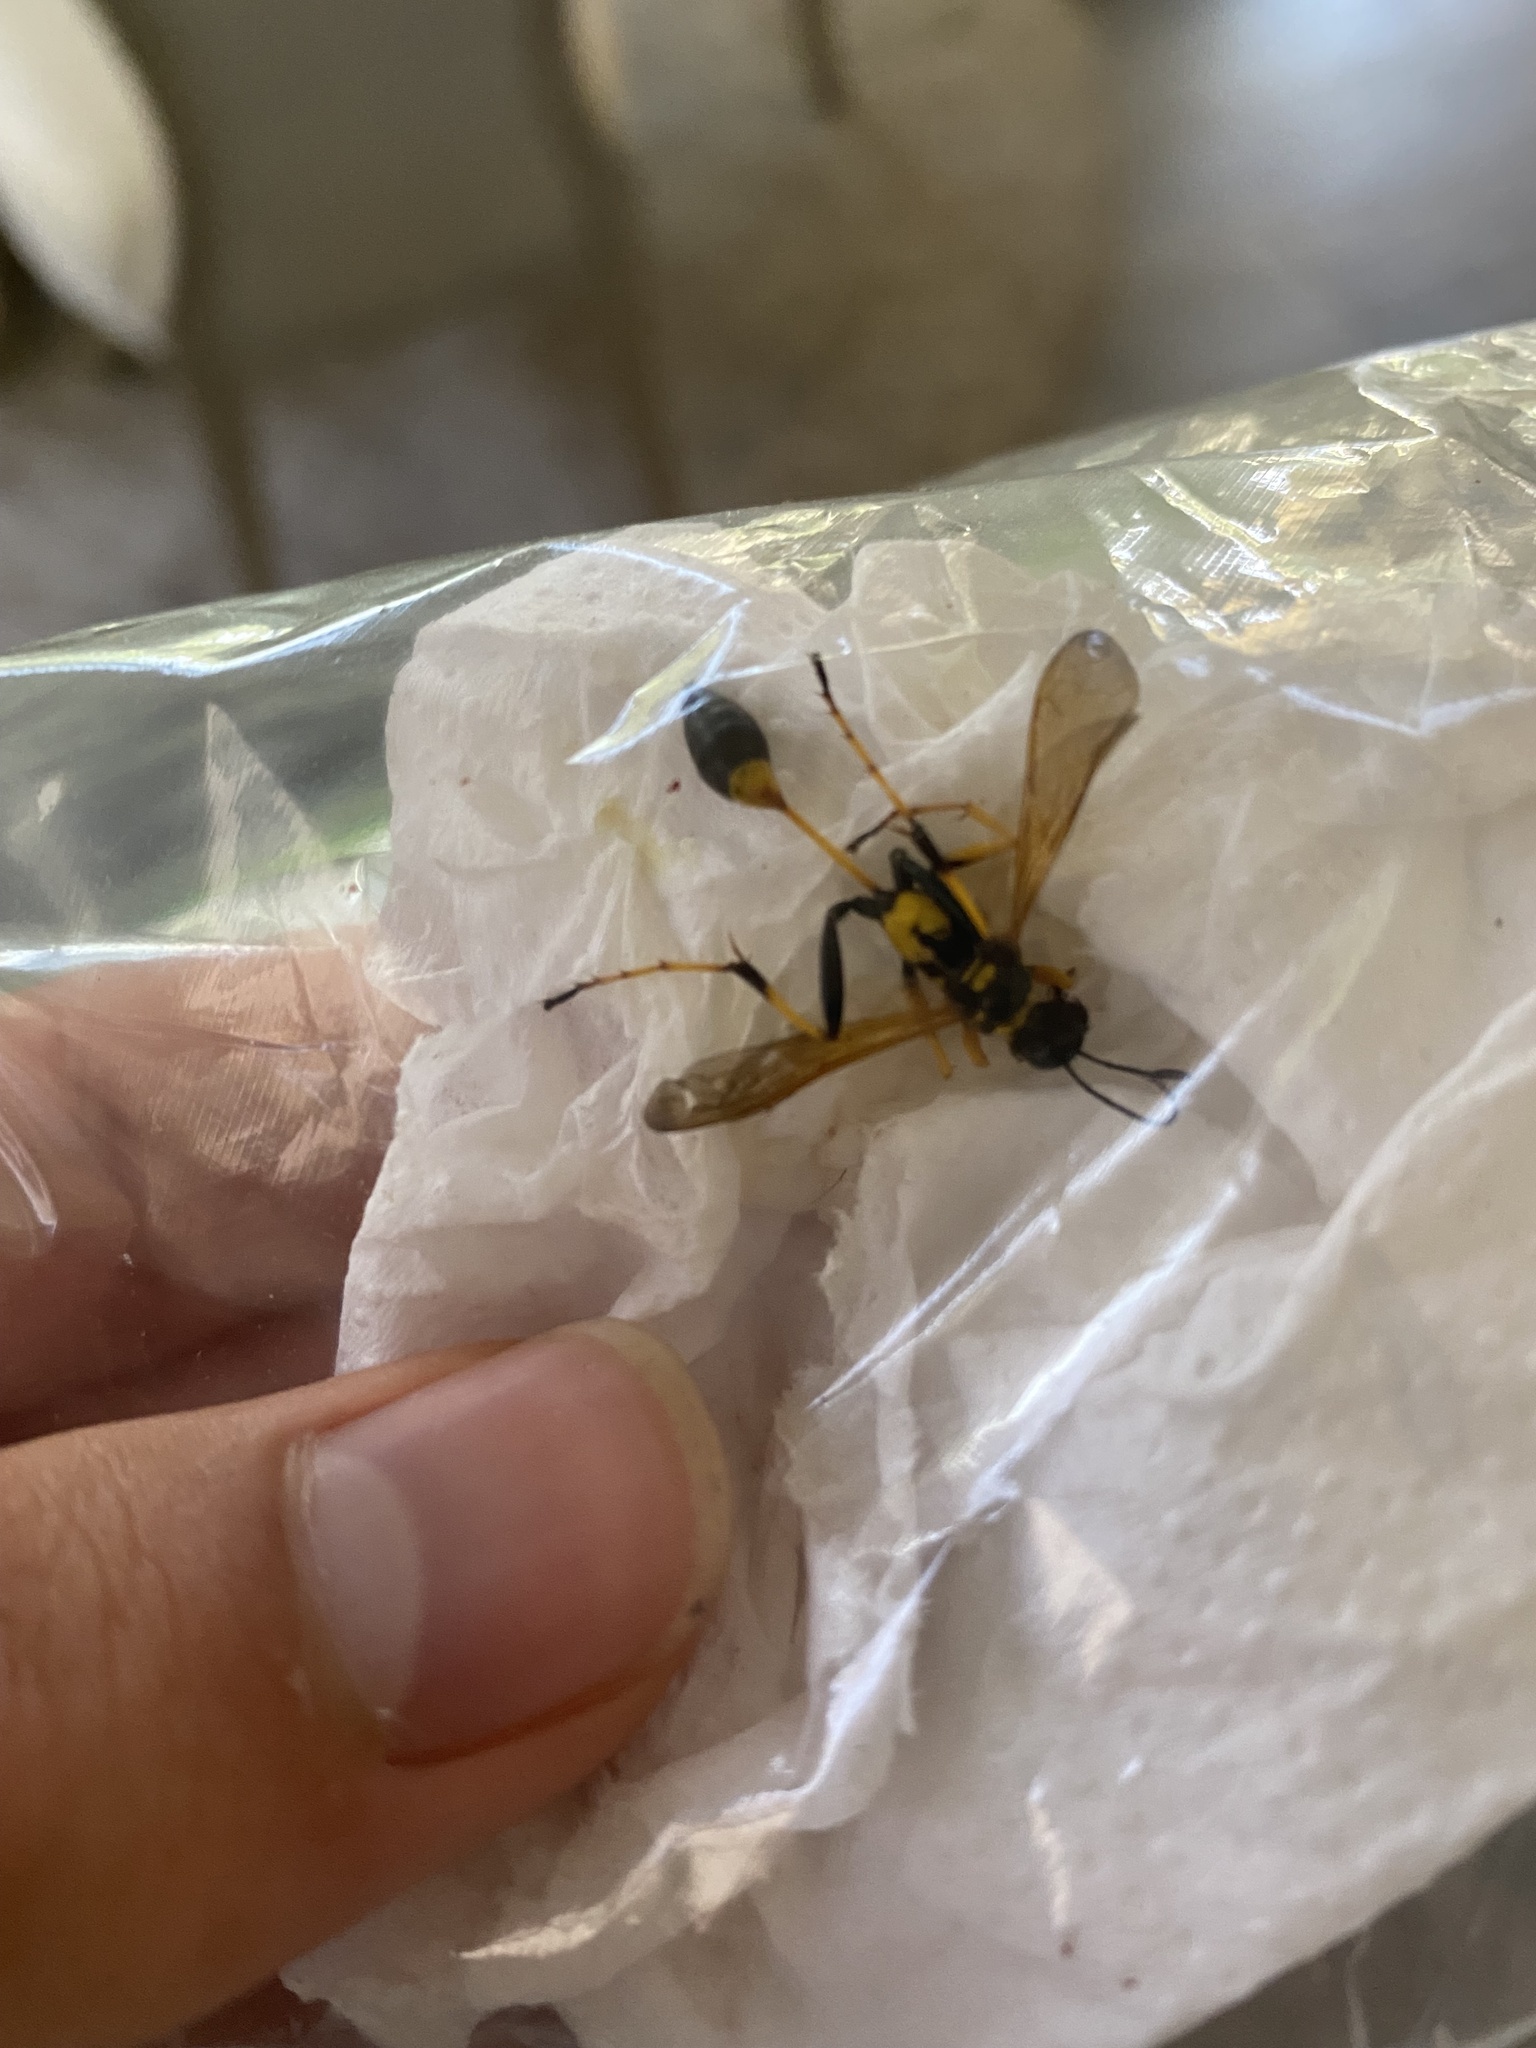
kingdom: Animalia
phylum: Arthropoda
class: Insecta
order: Hymenoptera
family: Sphecidae
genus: Sceliphron
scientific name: Sceliphron caementarium
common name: Mud dauber
